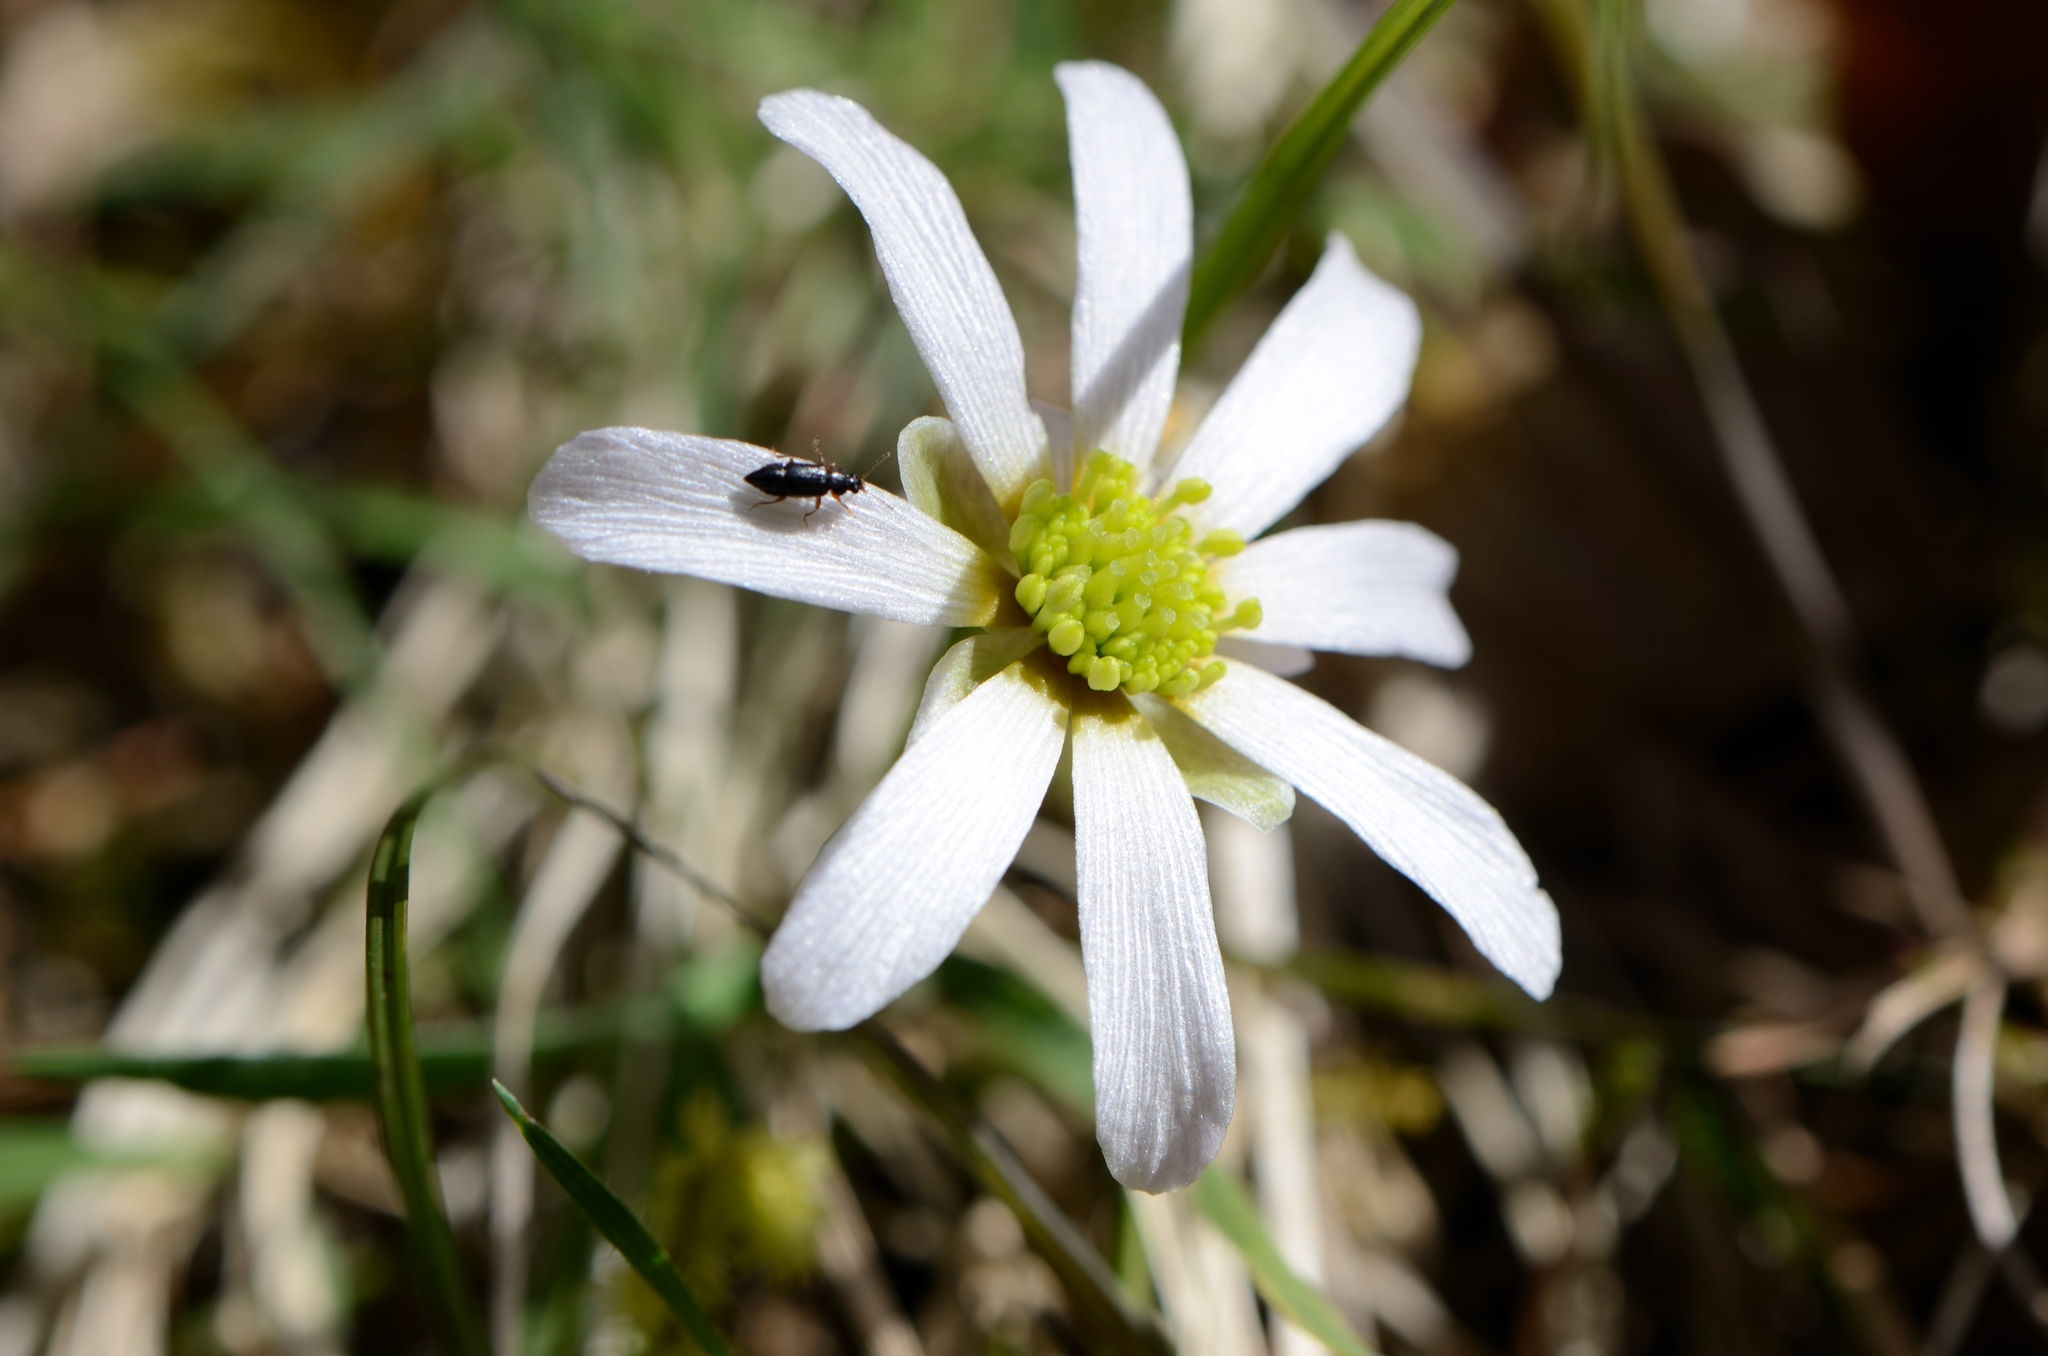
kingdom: Plantae
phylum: Tracheophyta
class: Magnoliopsida
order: Ranunculales
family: Ranunculaceae
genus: Callianthemum
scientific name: Callianthemum anemonoides
